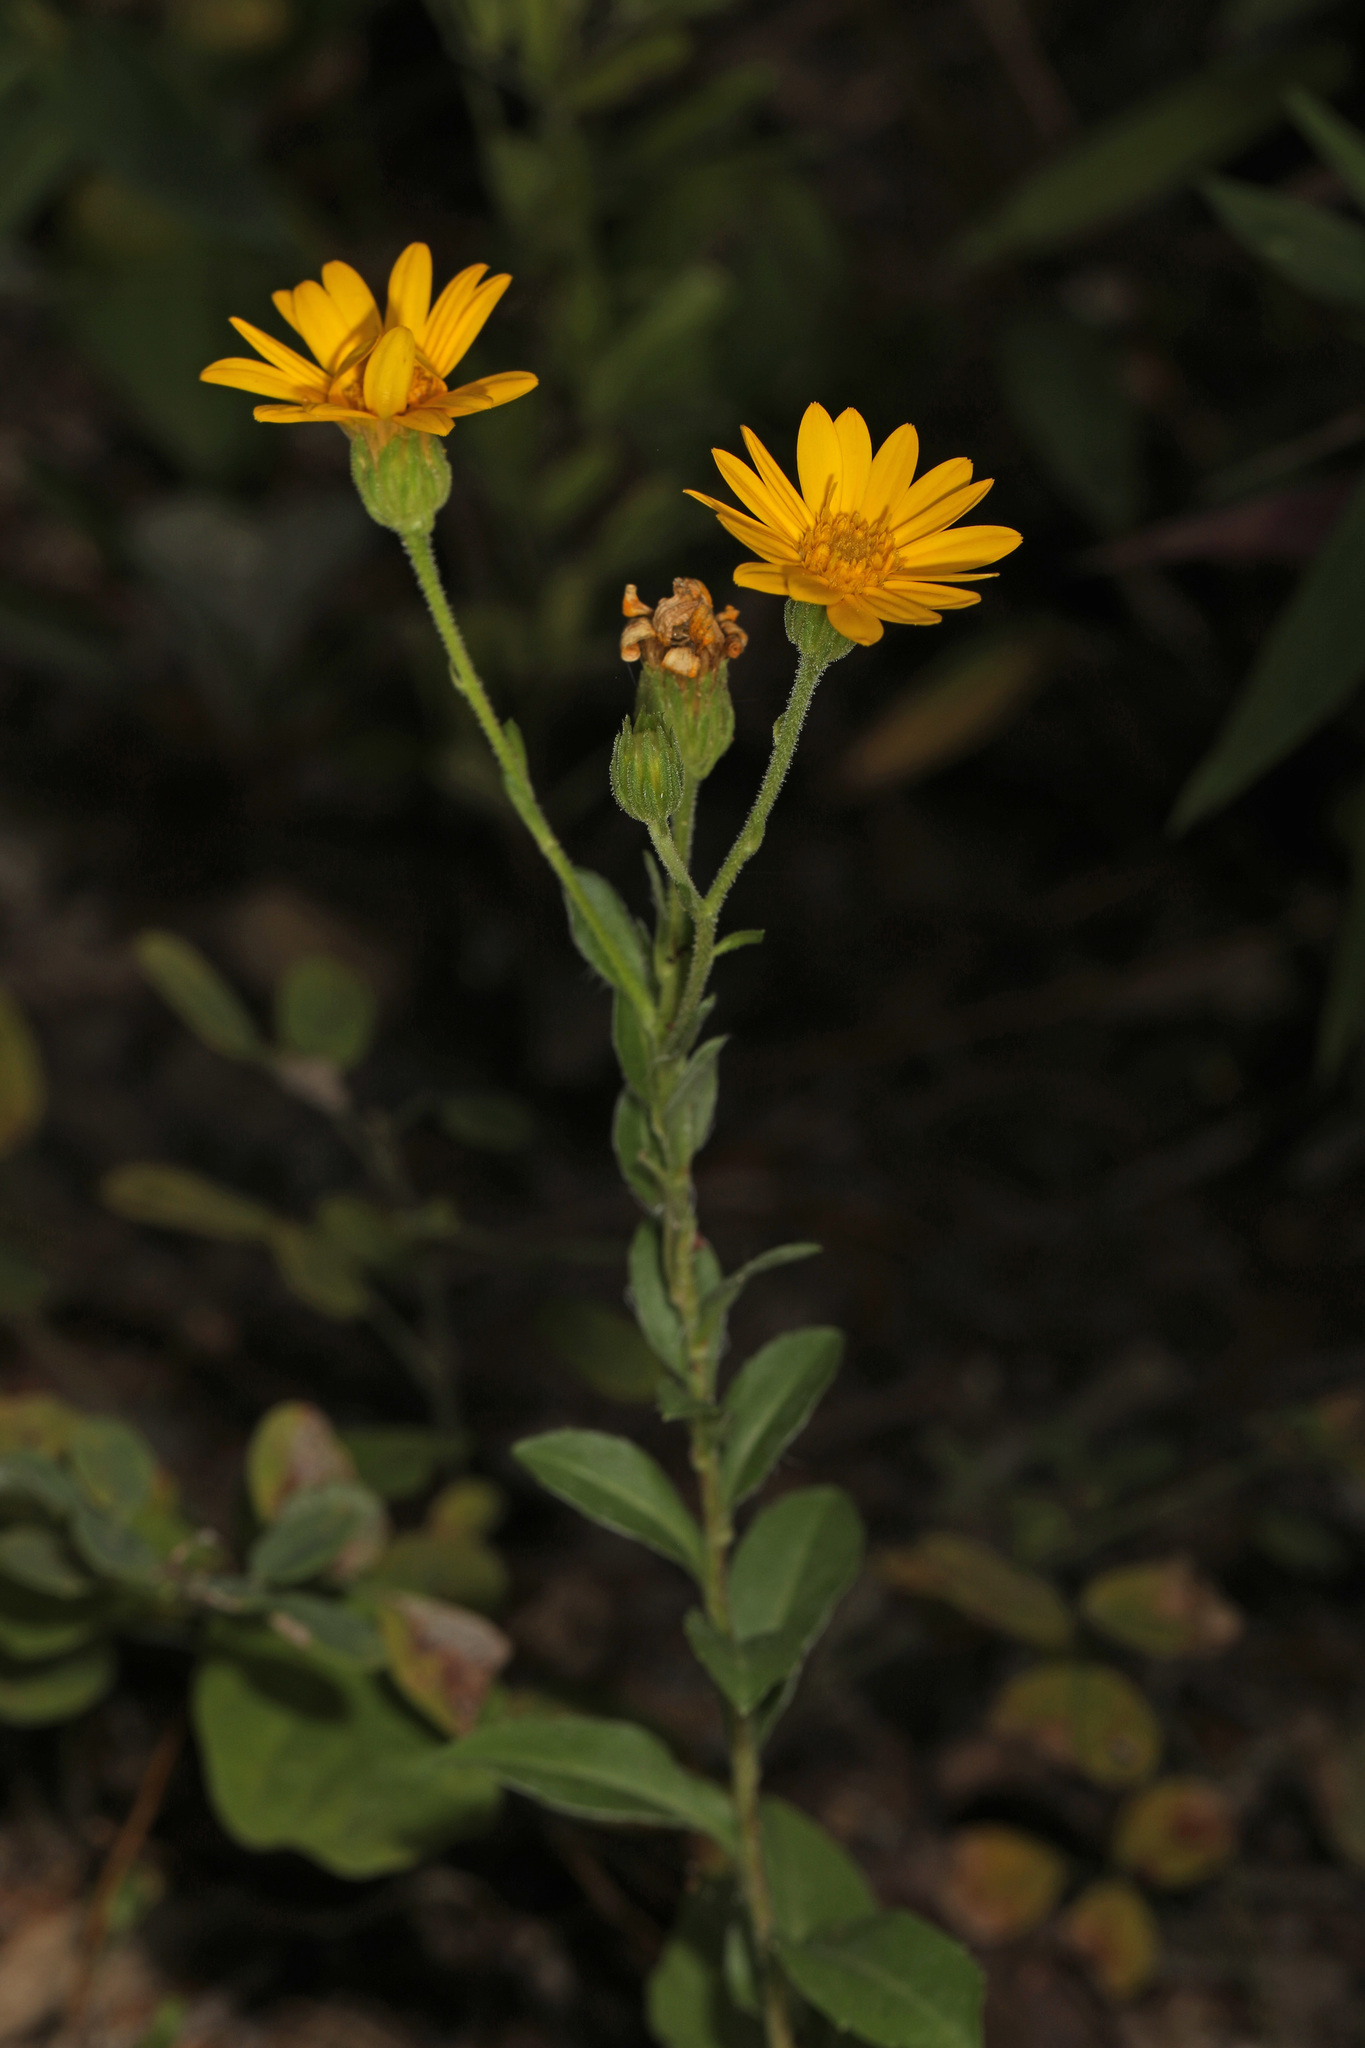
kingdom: Plantae
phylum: Tracheophyta
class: Magnoliopsida
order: Asterales
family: Asteraceae
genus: Chrysopsis
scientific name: Chrysopsis mariana
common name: Maryland golden-aster
